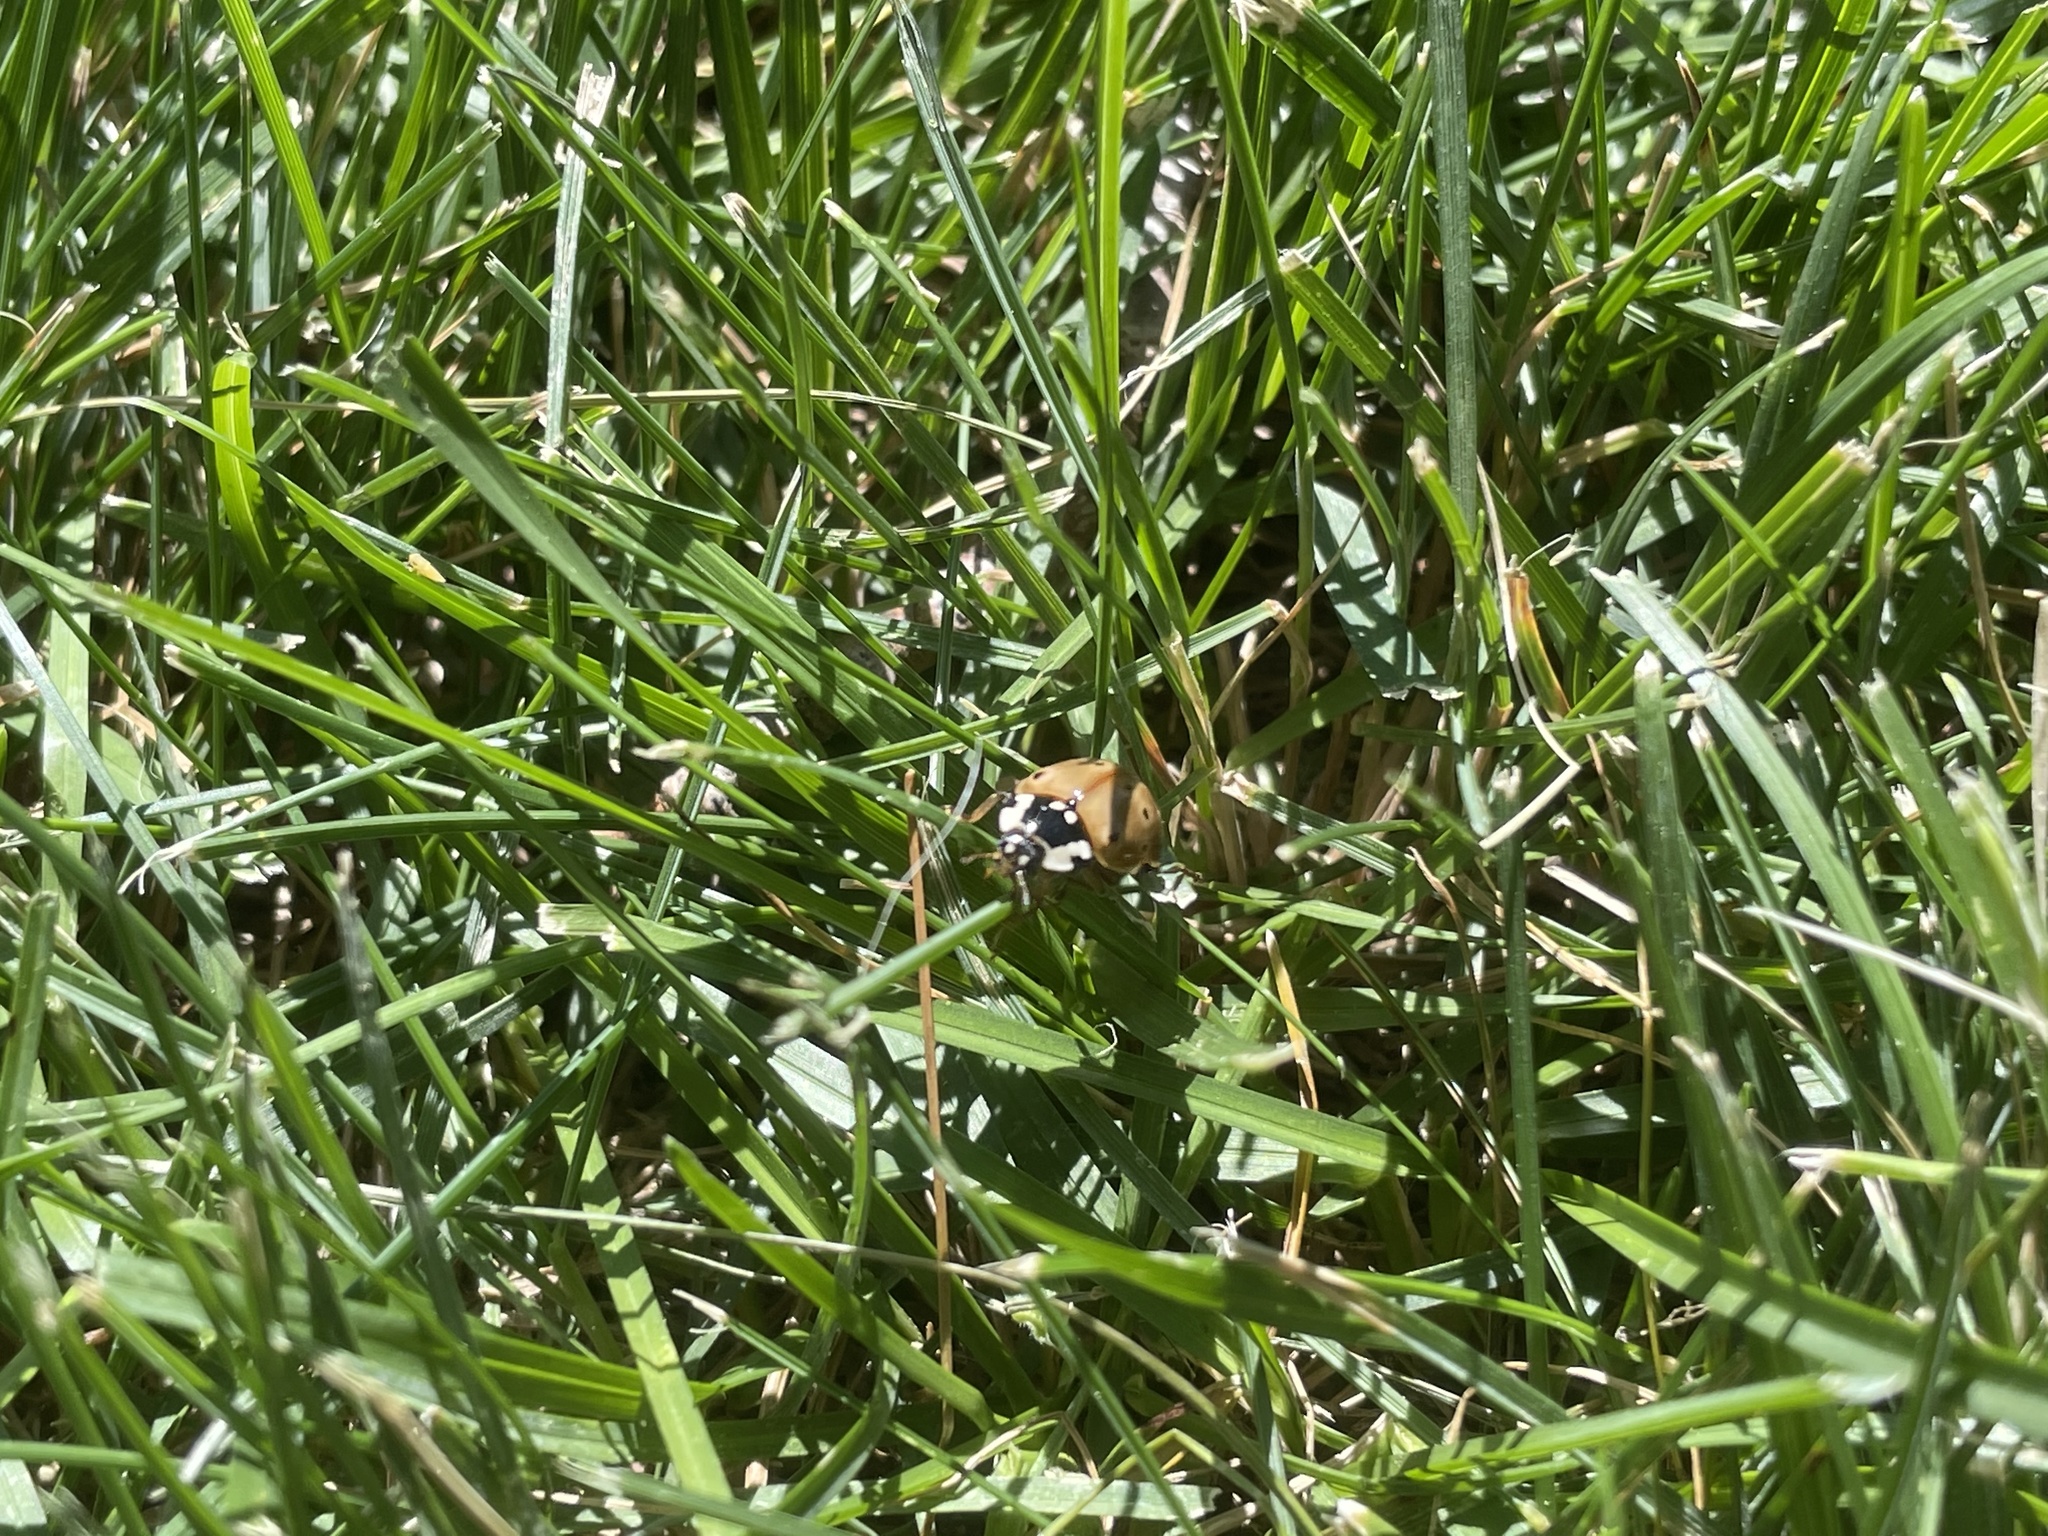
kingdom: Animalia
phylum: Arthropoda
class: Insecta
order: Coleoptera
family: Coccinellidae
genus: Anatis
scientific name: Anatis rathvoni
